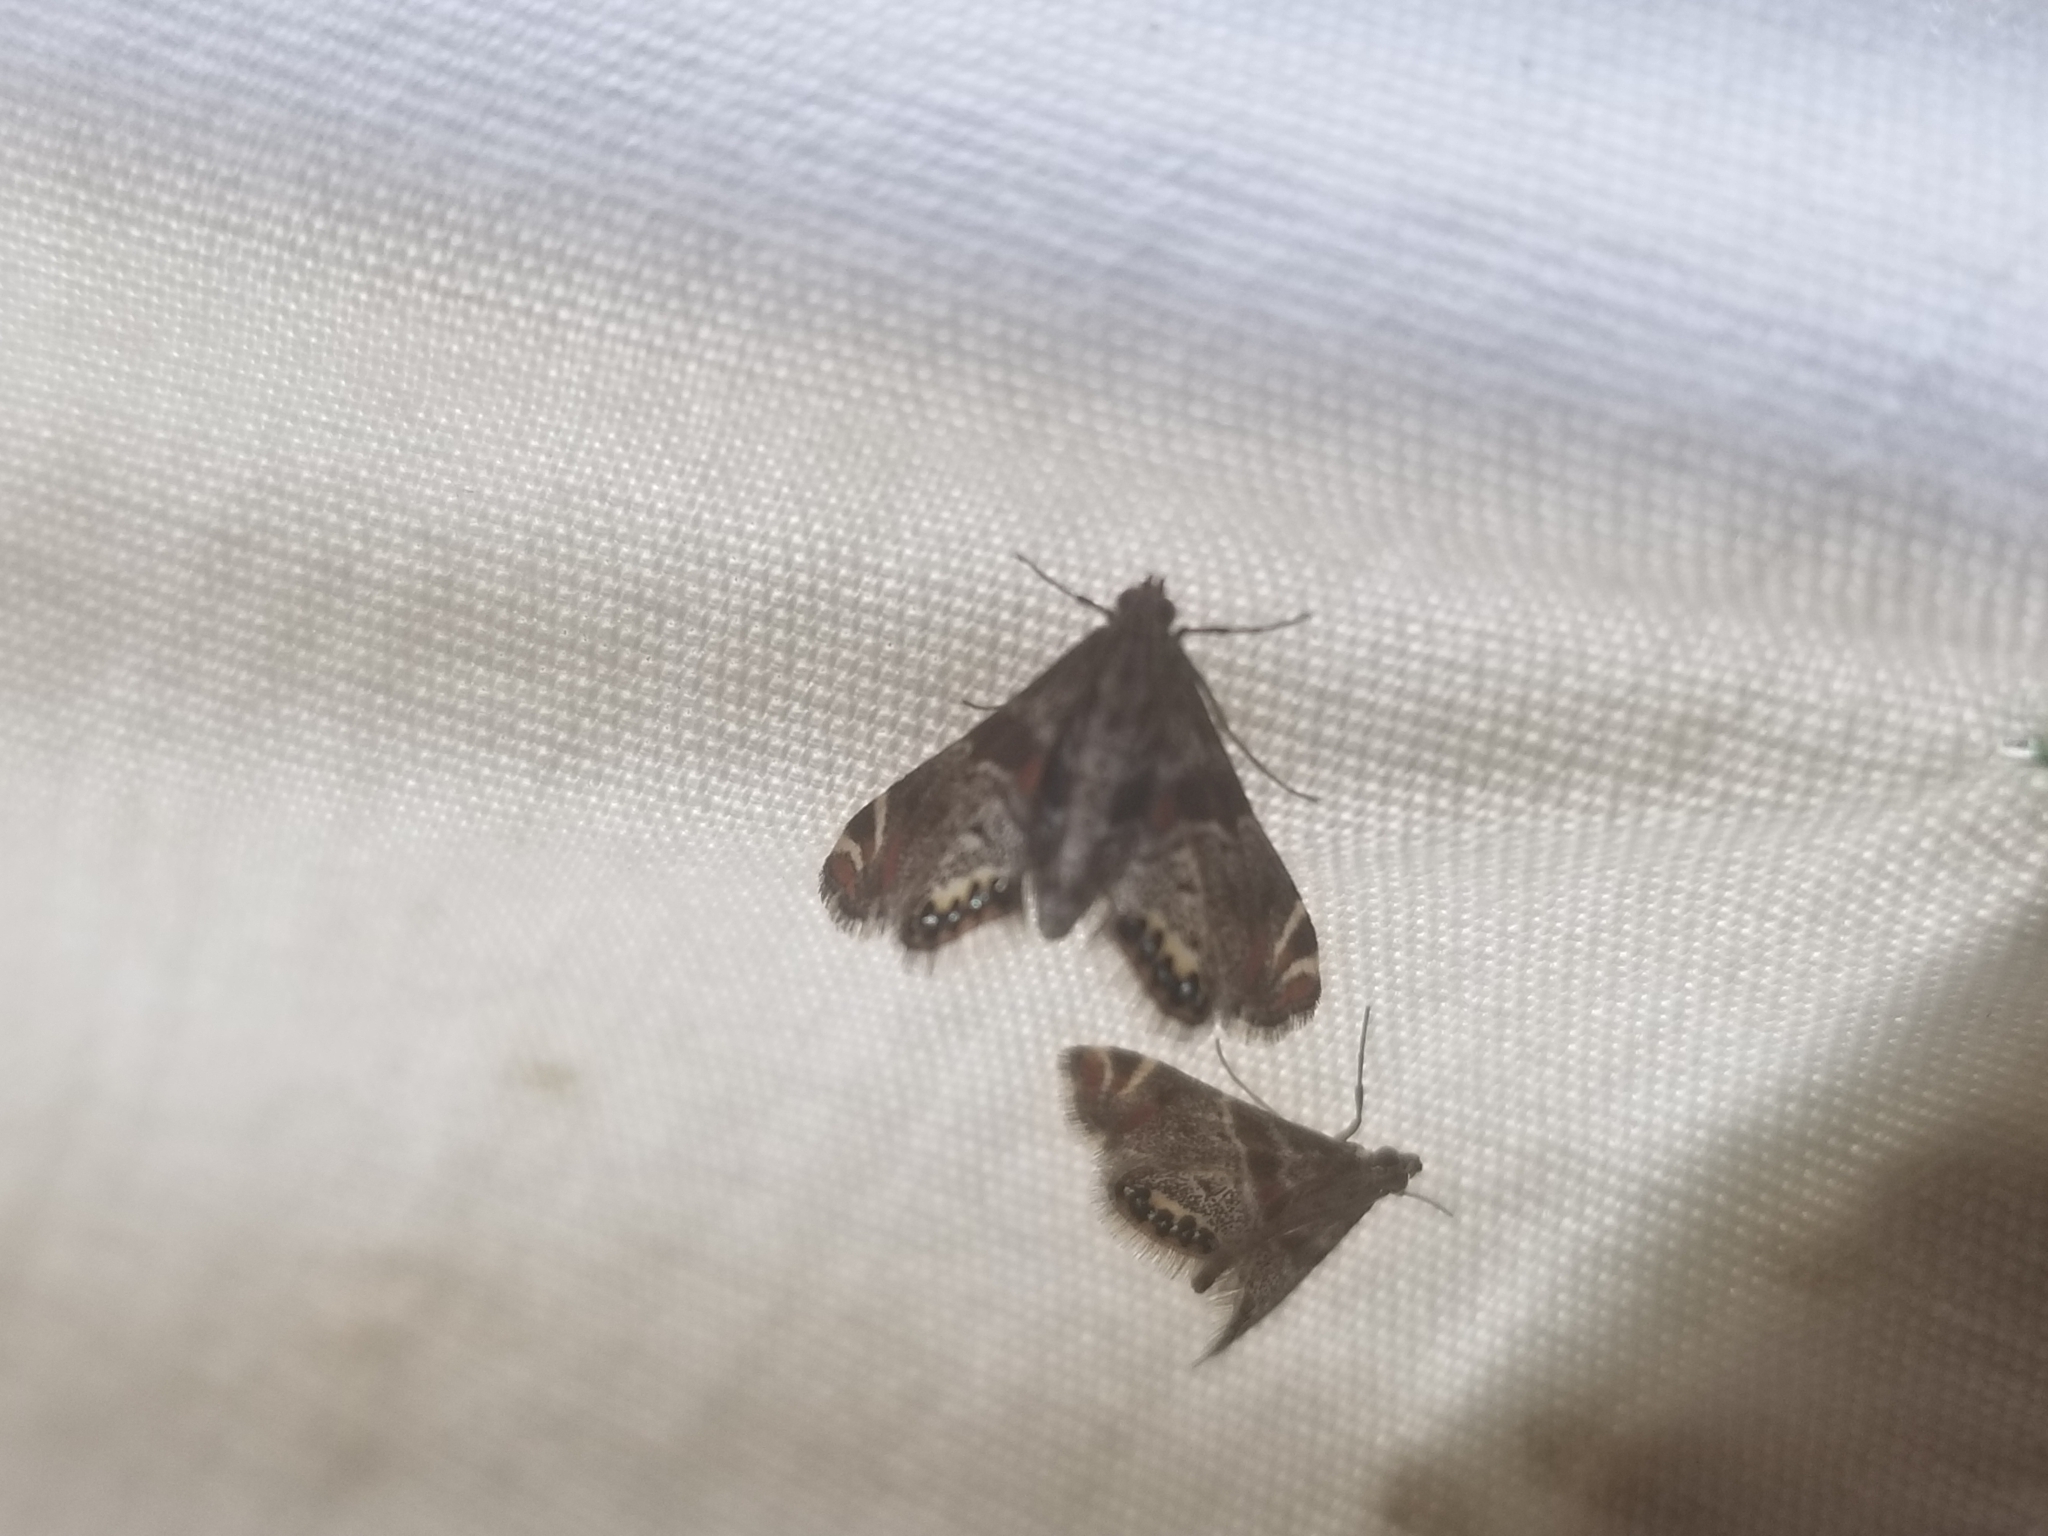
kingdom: Animalia
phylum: Arthropoda
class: Insecta
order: Lepidoptera
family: Crambidae
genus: Petrophila
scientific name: Petrophila jaliscalis
